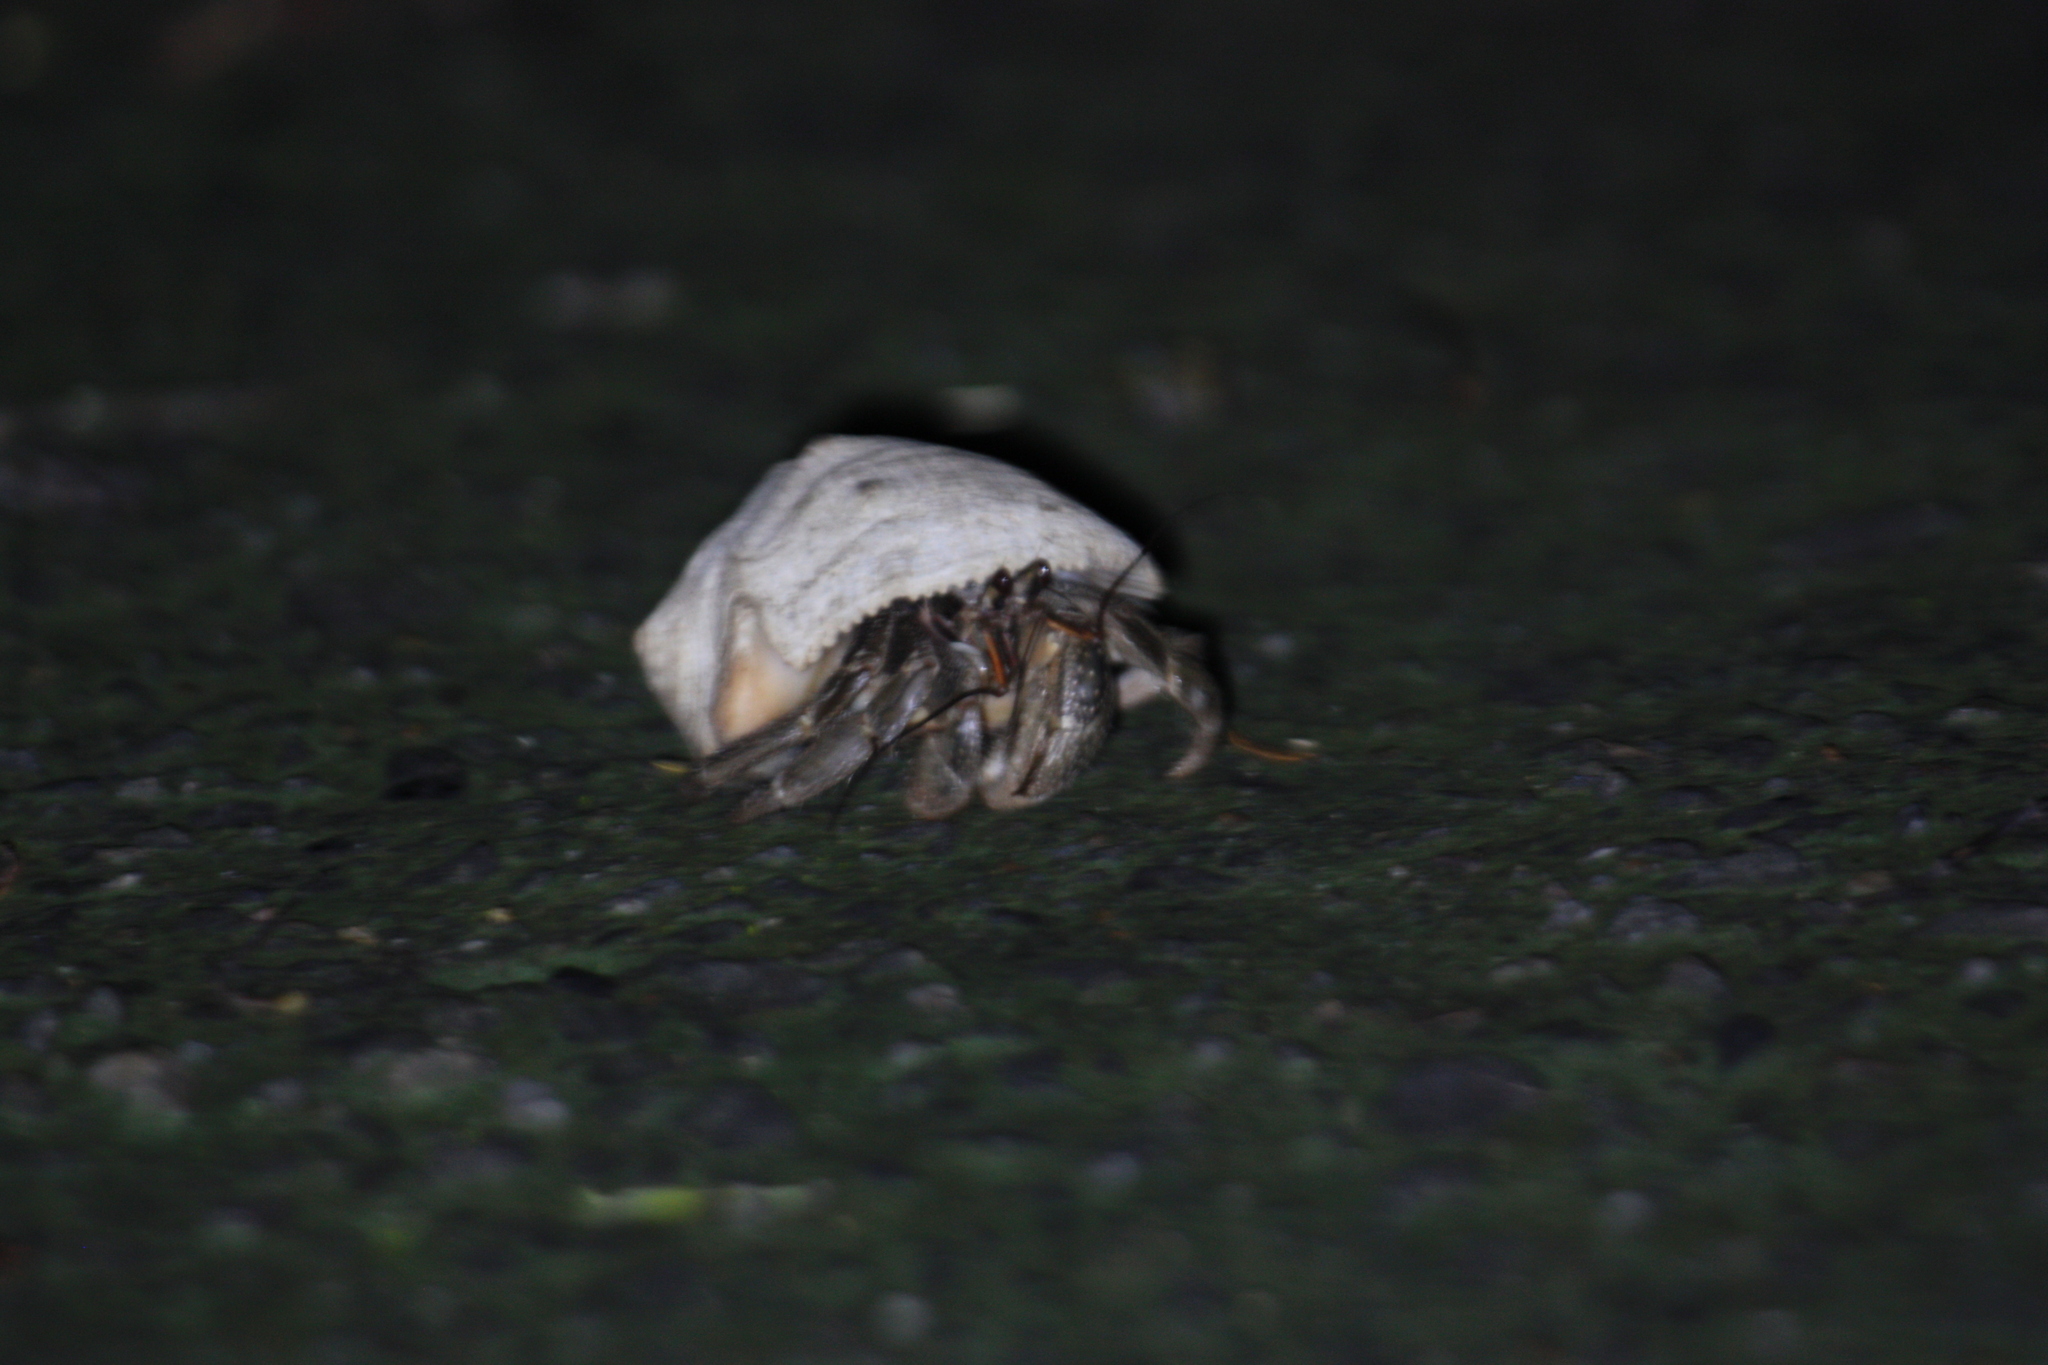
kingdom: Animalia
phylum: Arthropoda
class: Malacostraca
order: Decapoda
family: Coenobitidae
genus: Coenobita
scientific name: Coenobita cavipes
